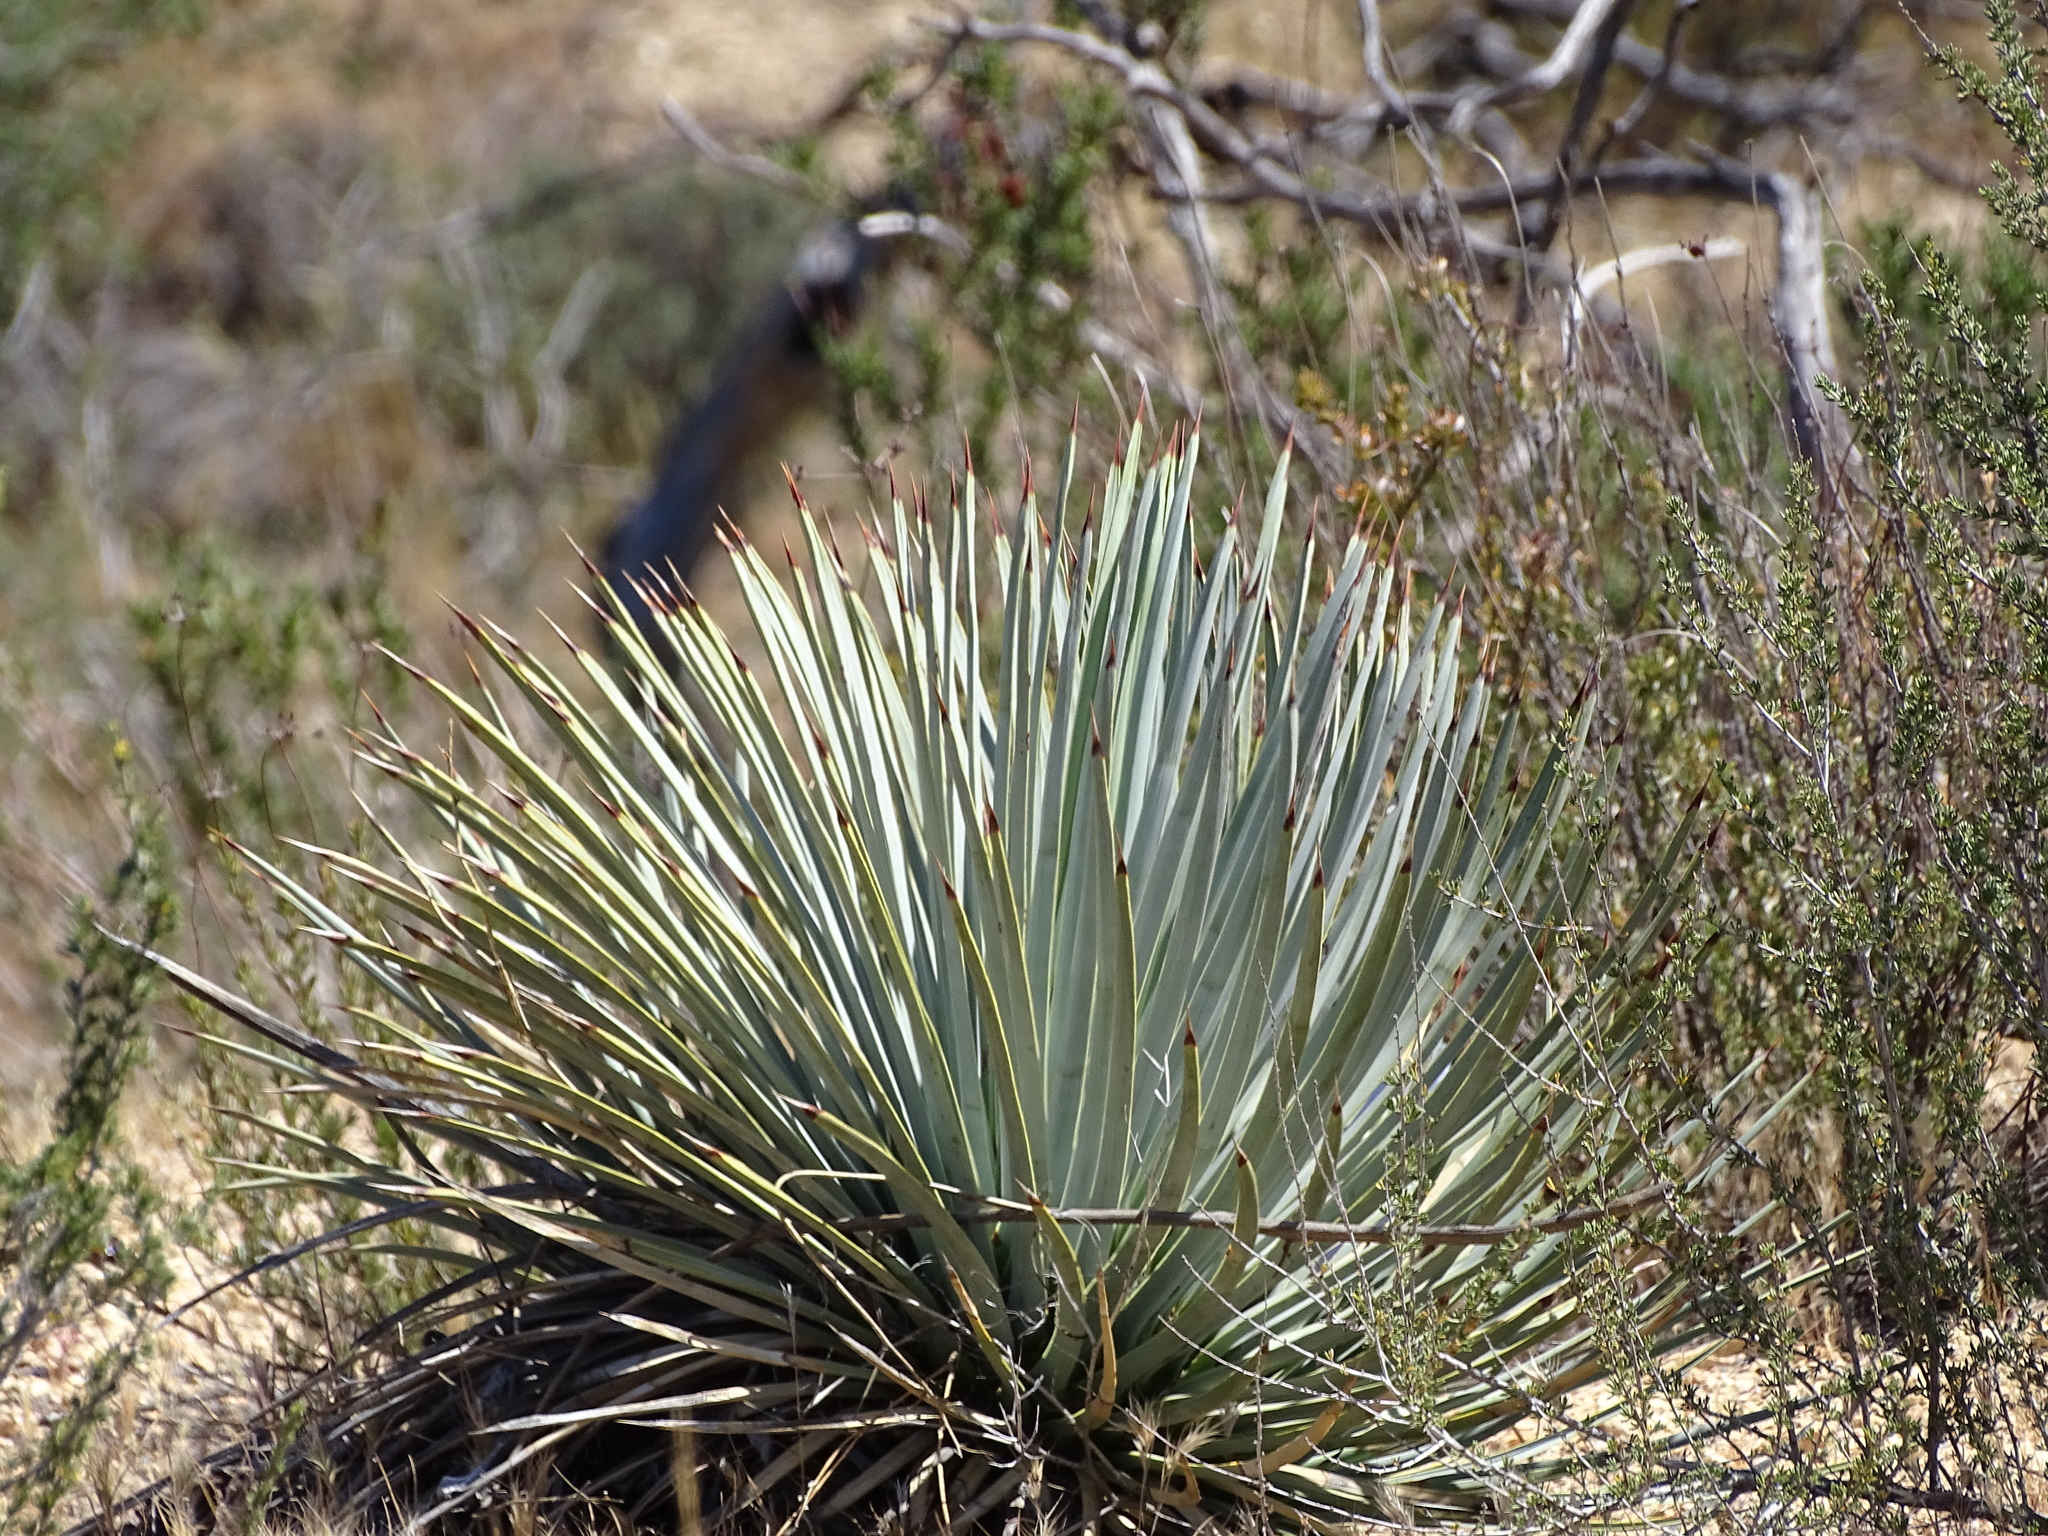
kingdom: Plantae
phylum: Tracheophyta
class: Liliopsida
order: Asparagales
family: Asparagaceae
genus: Hesperoyucca
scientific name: Hesperoyucca whipplei
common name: Our lord's-candle
